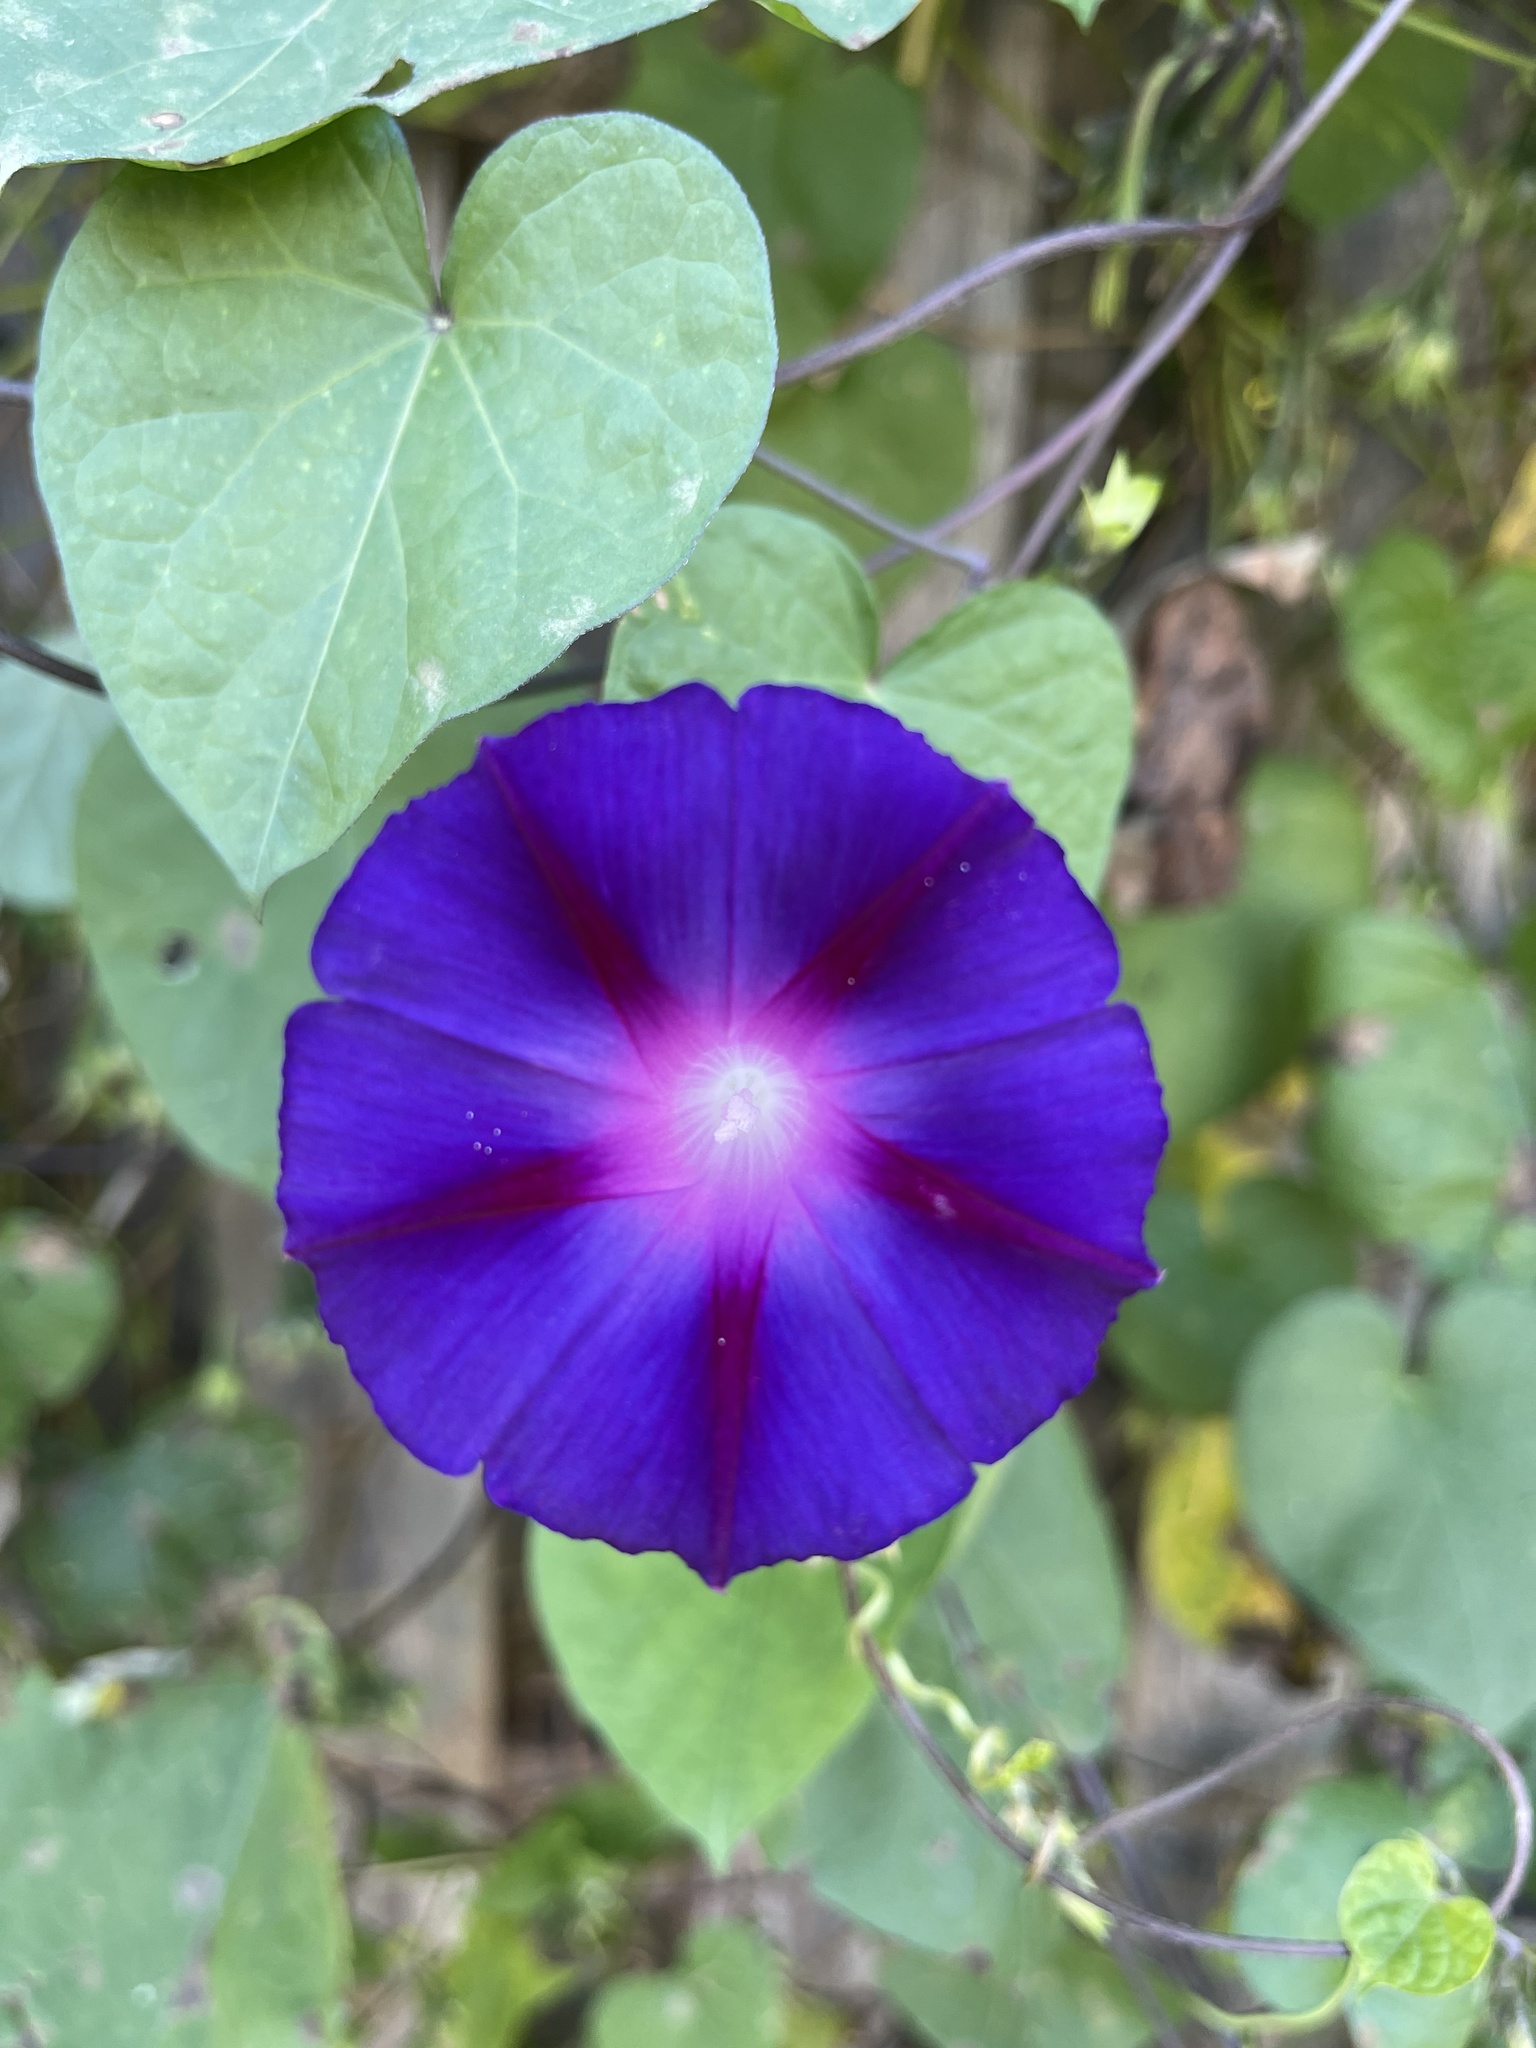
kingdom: Plantae
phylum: Tracheophyta
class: Magnoliopsida
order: Solanales
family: Convolvulaceae
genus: Ipomoea
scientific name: Ipomoea purpurea
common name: Common morning-glory
